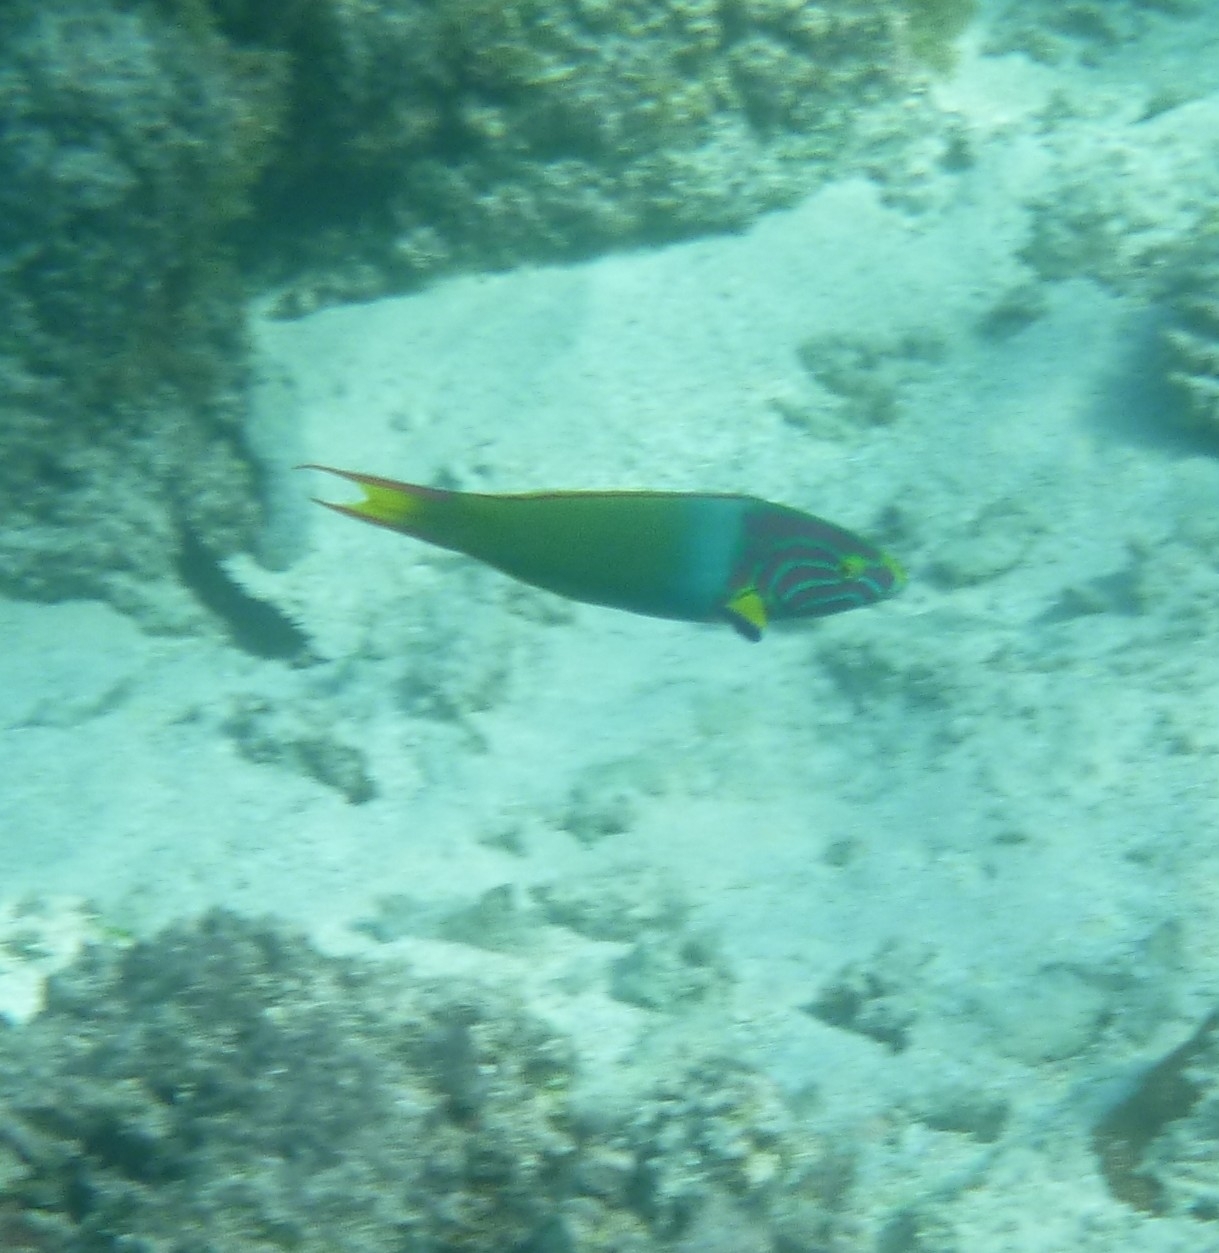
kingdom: Animalia
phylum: Chordata
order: Perciformes
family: Labridae
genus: Thalassoma
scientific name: Thalassoma lutescens
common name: Green moon wrasse
